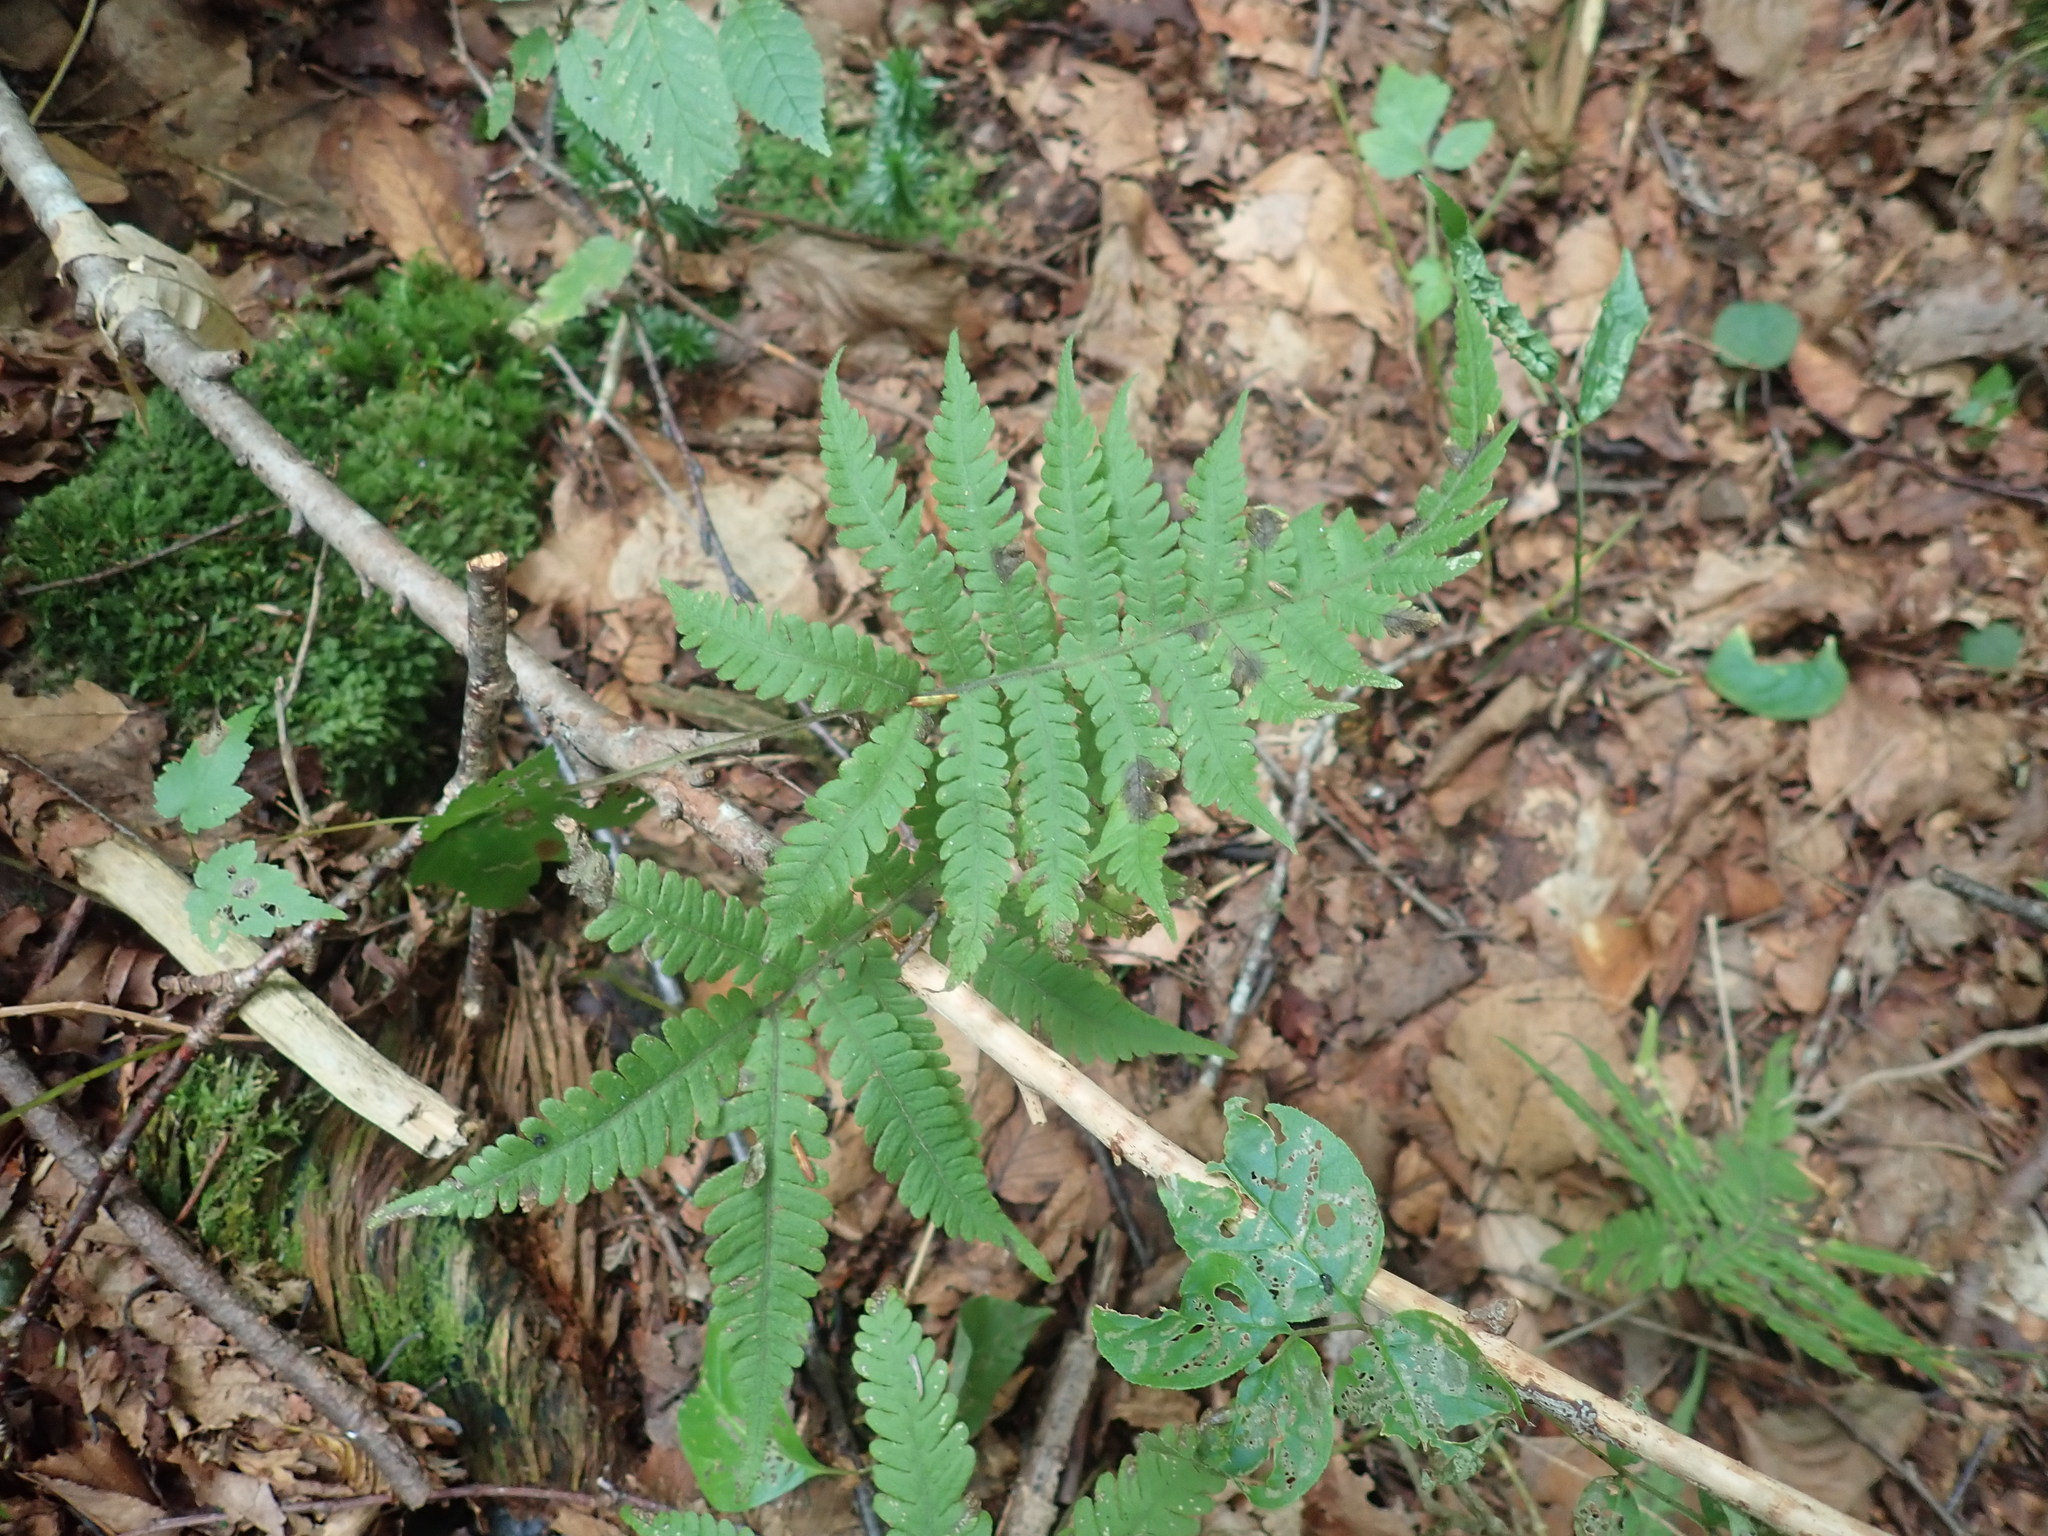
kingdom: Plantae
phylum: Tracheophyta
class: Polypodiopsida
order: Polypodiales
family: Thelypteridaceae
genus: Phegopteris
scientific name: Phegopteris connectilis
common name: Beech fern
